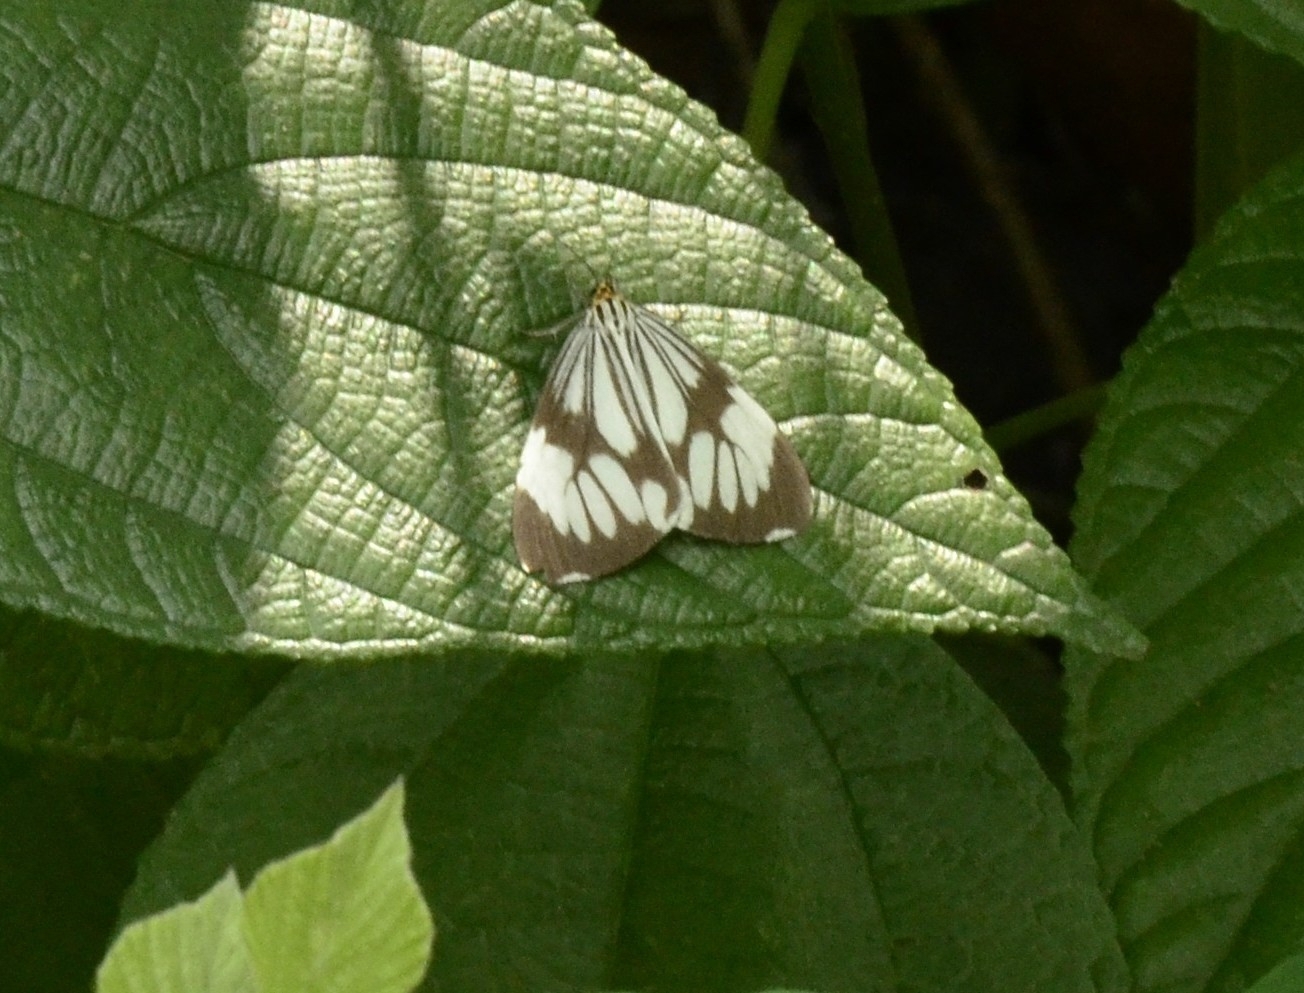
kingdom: Animalia
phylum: Arthropoda
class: Insecta
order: Lepidoptera
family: Erebidae
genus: Nyctemera
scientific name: Nyctemera coleta
